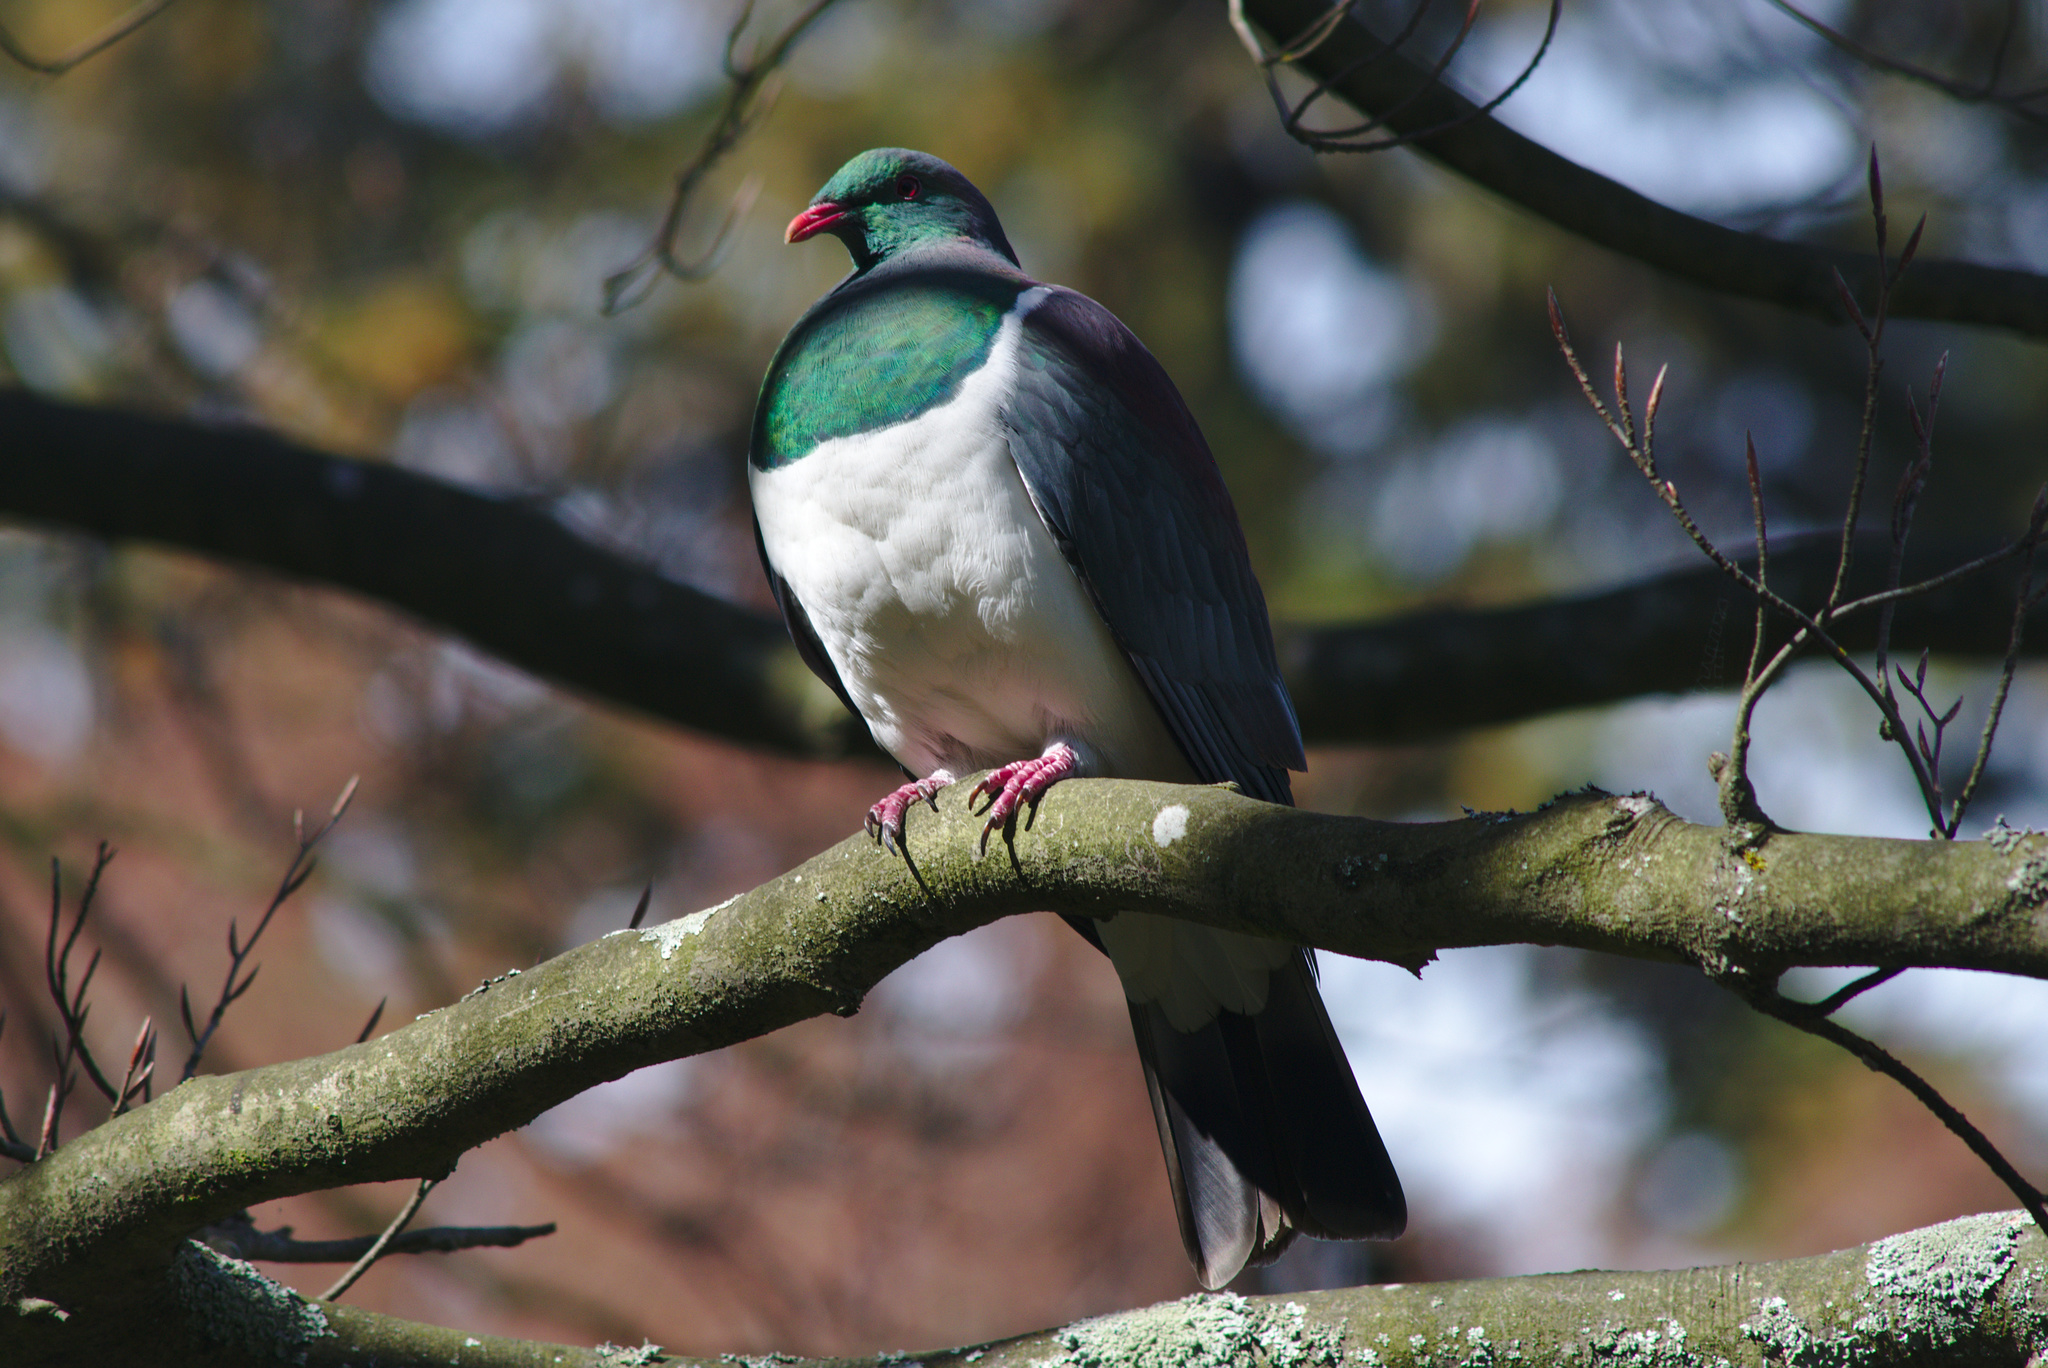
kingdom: Animalia
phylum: Chordata
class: Aves
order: Columbiformes
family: Columbidae
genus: Hemiphaga
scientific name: Hemiphaga novaeseelandiae
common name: New zealand pigeon
